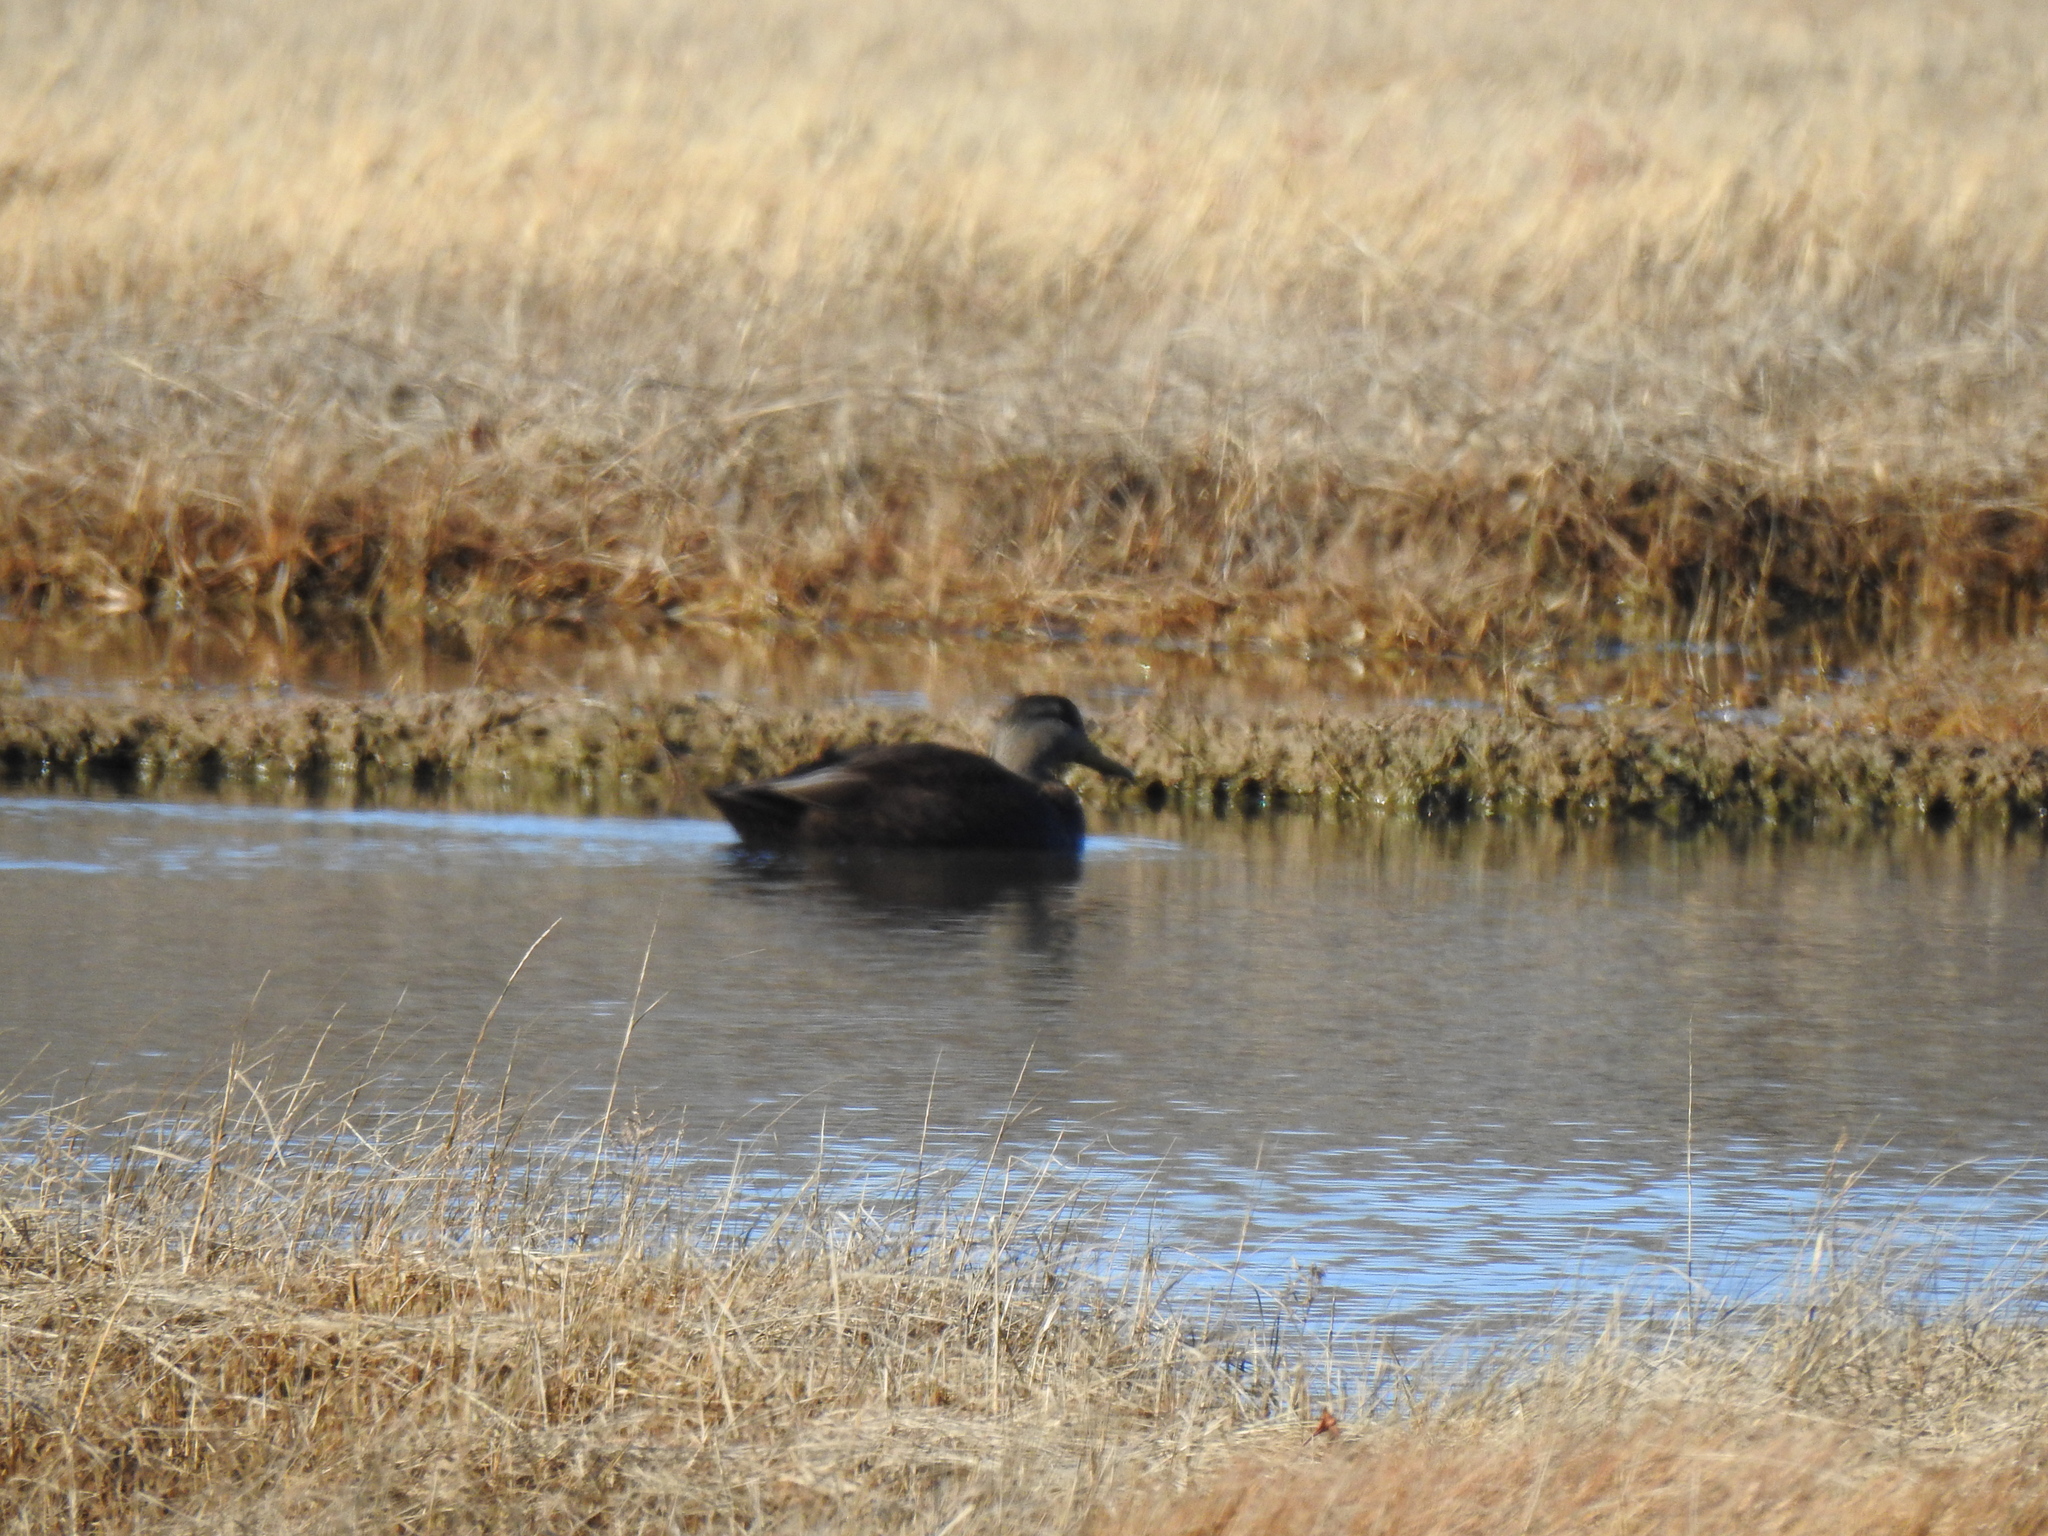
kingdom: Animalia
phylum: Chordata
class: Aves
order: Anseriformes
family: Anatidae
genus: Anas
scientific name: Anas rubripes
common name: American black duck
